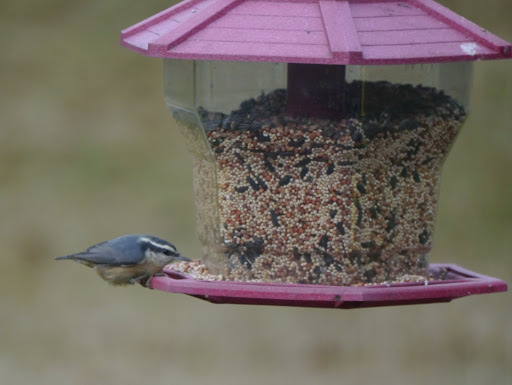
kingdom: Animalia
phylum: Chordata
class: Aves
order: Passeriformes
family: Sittidae
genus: Sitta
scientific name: Sitta canadensis
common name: Red-breasted nuthatch
